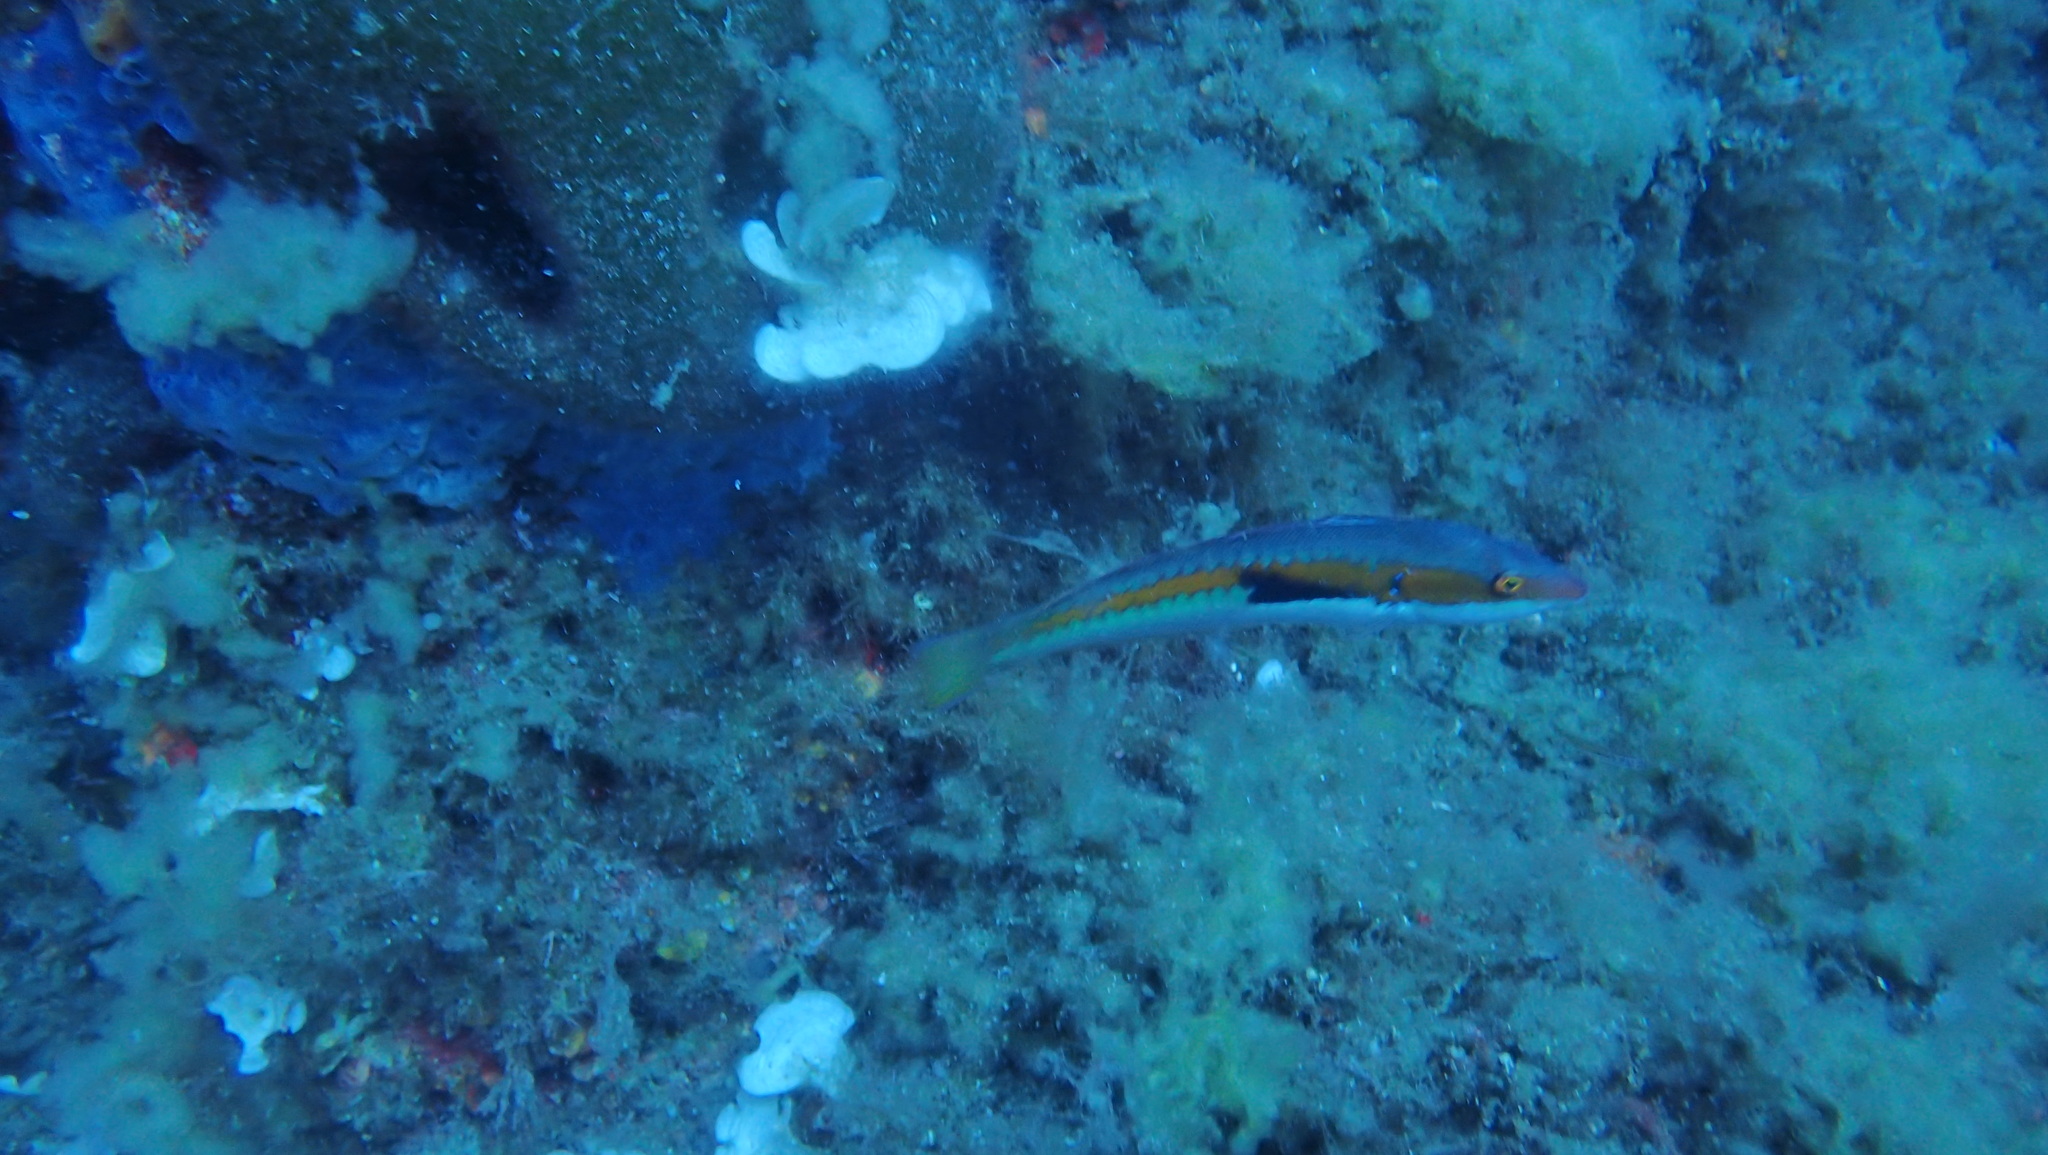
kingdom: Animalia
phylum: Chordata
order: Perciformes
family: Labridae
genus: Coris
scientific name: Coris julis
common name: Rainbow wrasse
